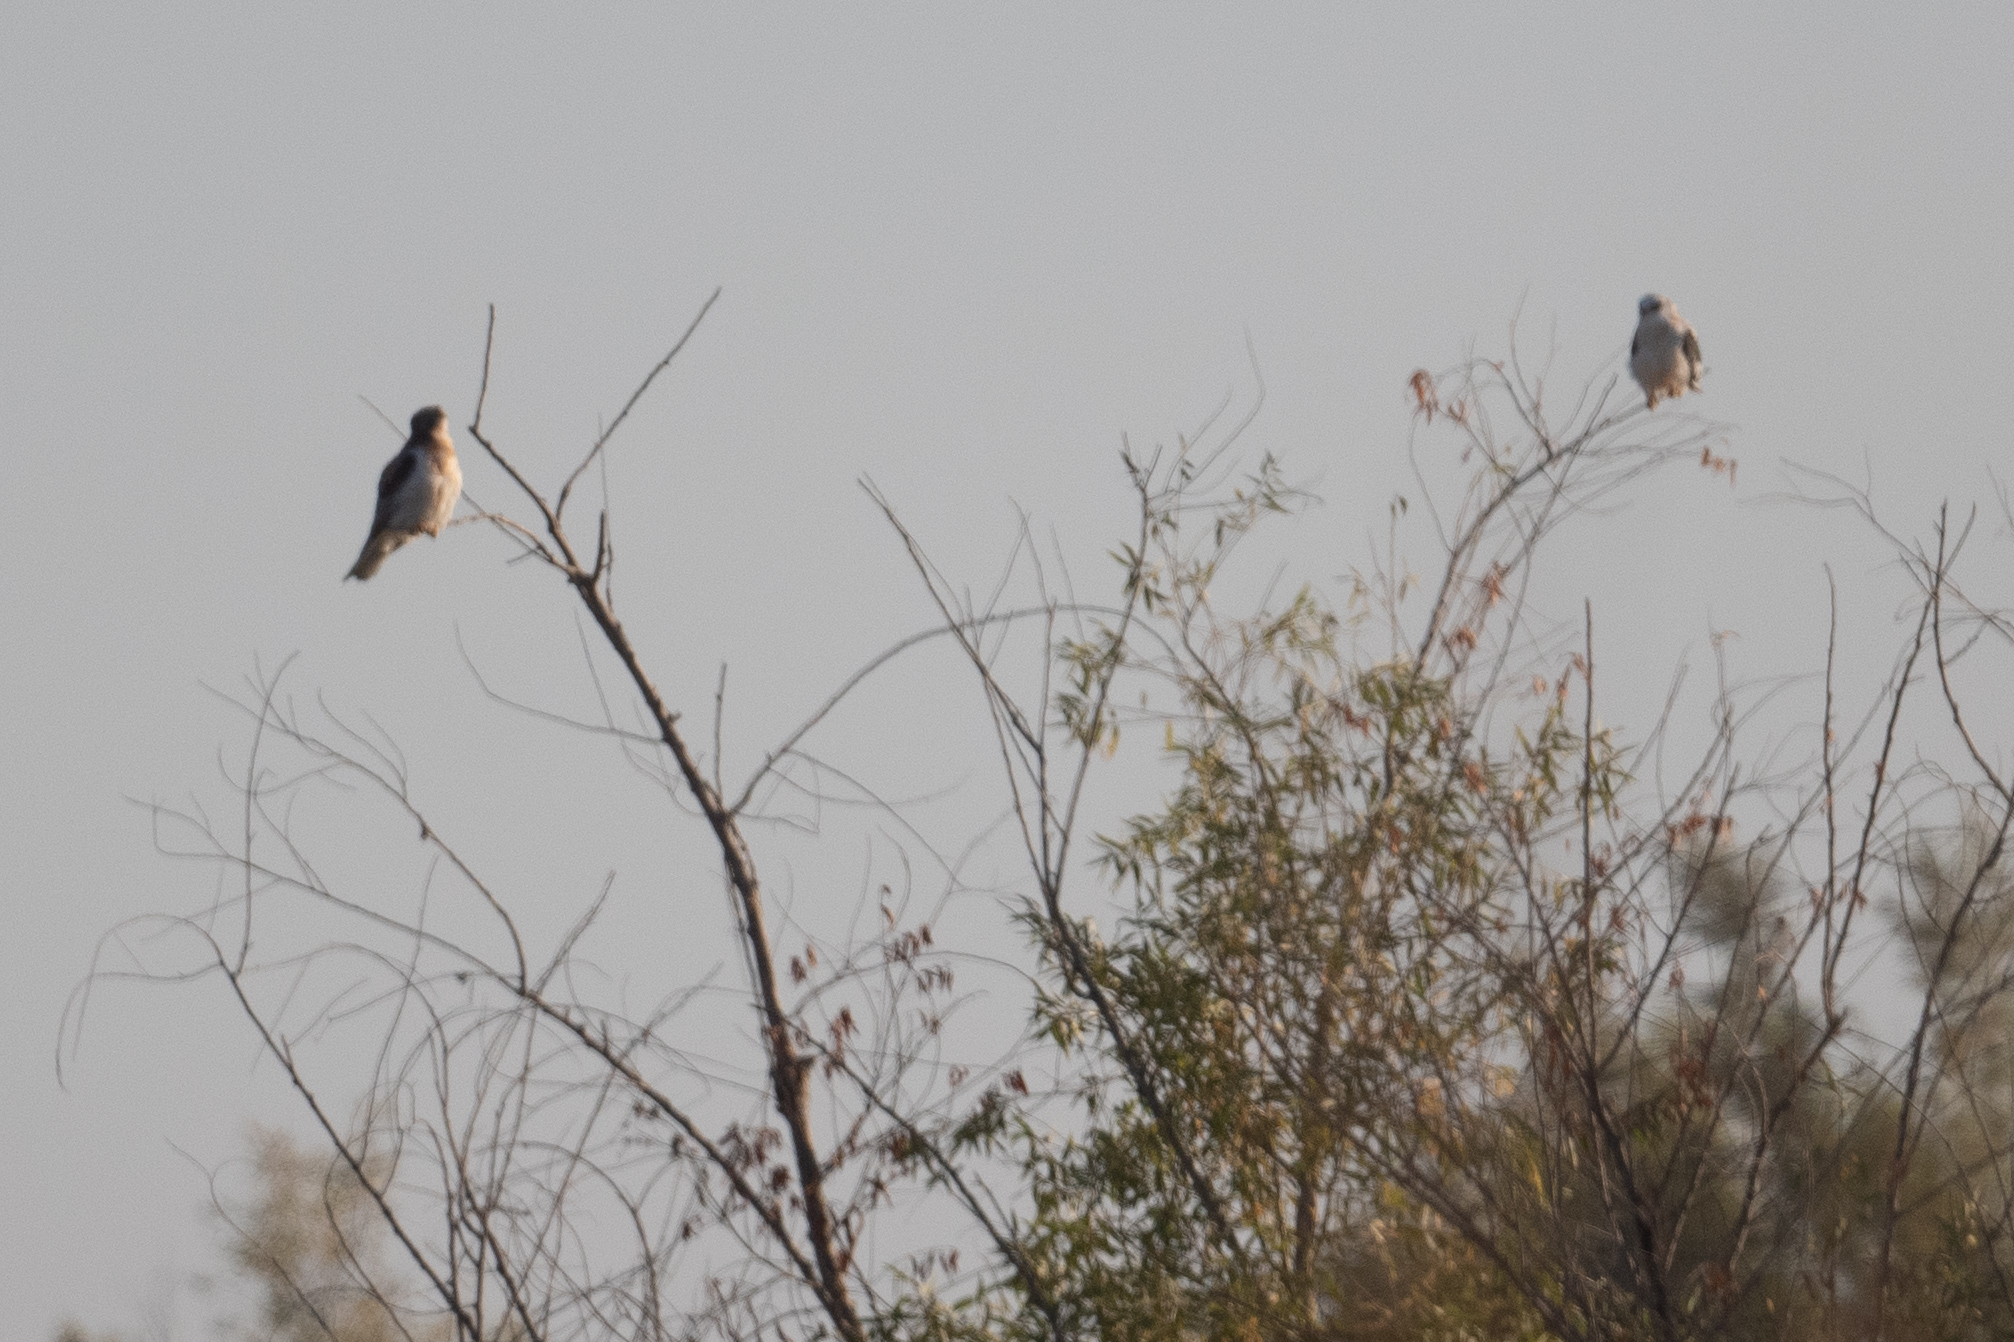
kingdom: Animalia
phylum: Chordata
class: Aves
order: Accipitriformes
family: Accipitridae
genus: Elanus
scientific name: Elanus leucurus
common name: White-tailed kite
